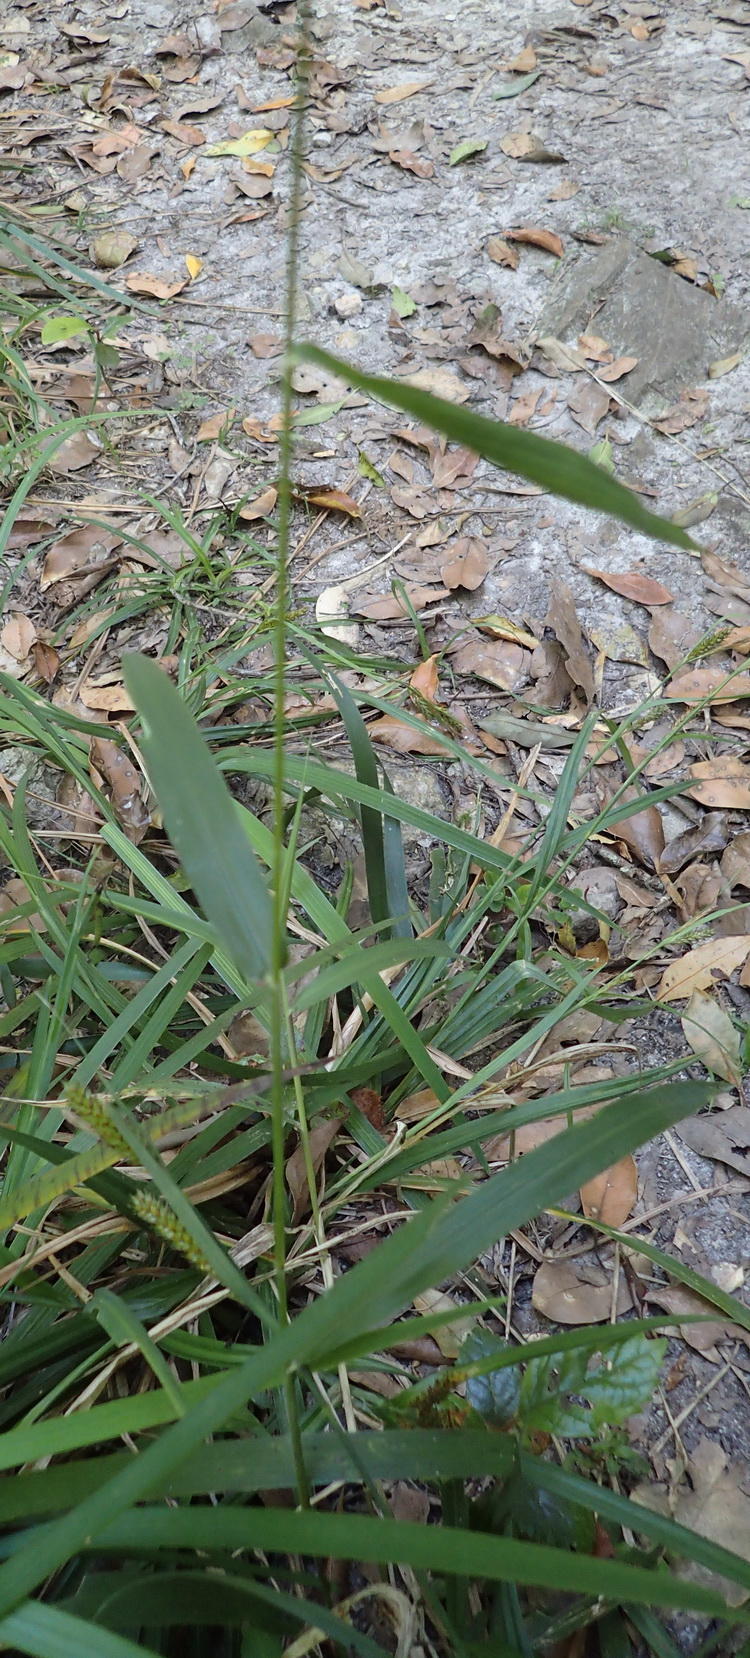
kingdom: Plantae
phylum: Tracheophyta
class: Liliopsida
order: Poales
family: Poaceae
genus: Panicum
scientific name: Panicum deustum
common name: Reed panicum
